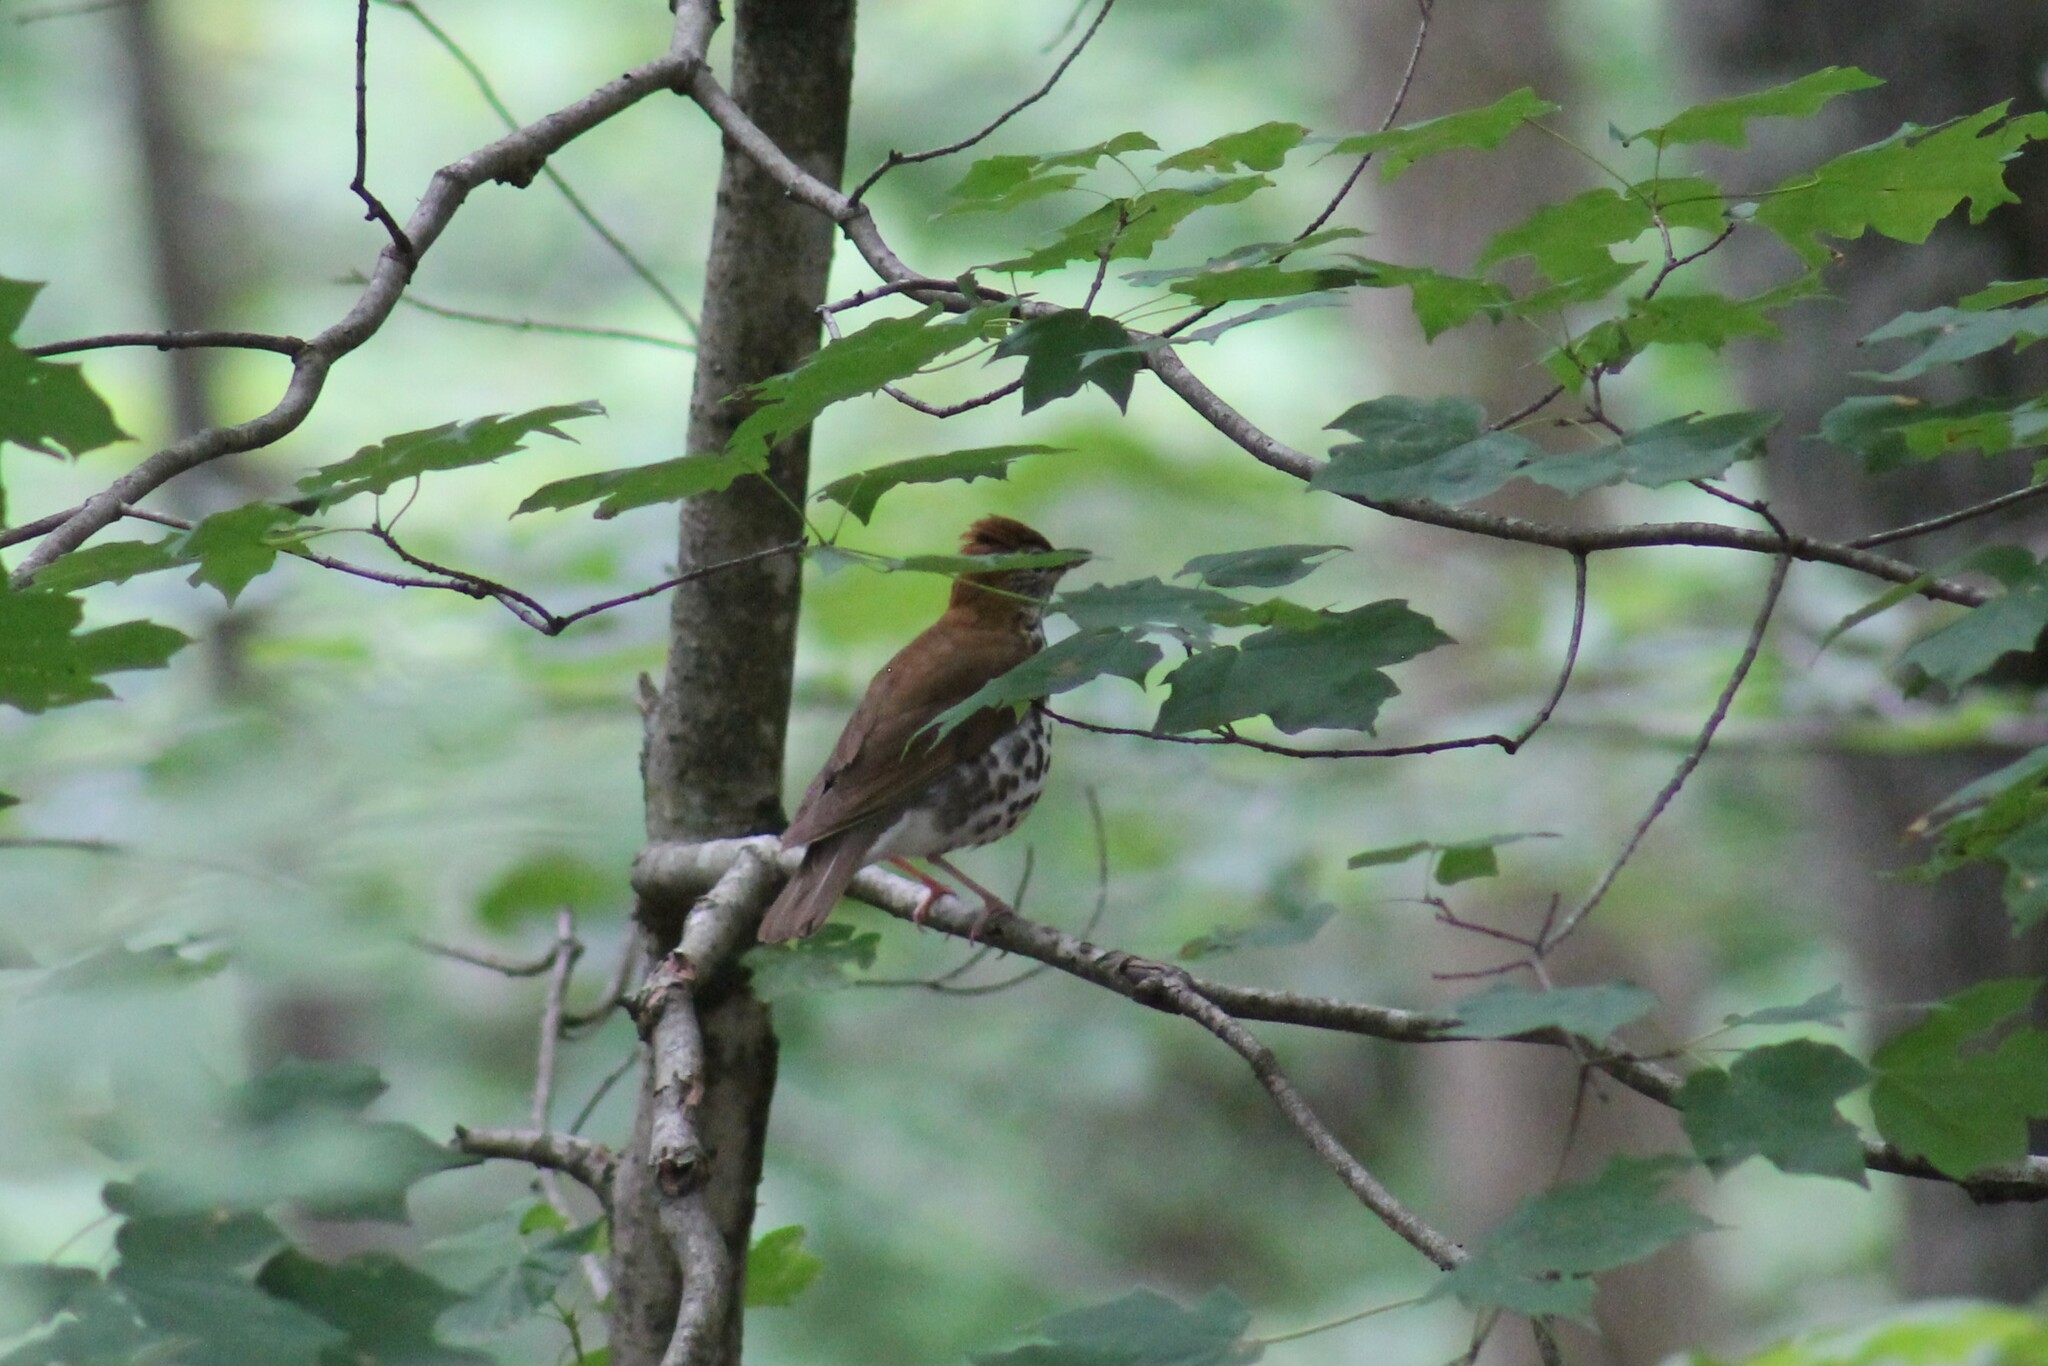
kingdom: Animalia
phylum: Chordata
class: Aves
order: Passeriformes
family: Turdidae
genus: Hylocichla
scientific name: Hylocichla mustelina
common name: Wood thrush
